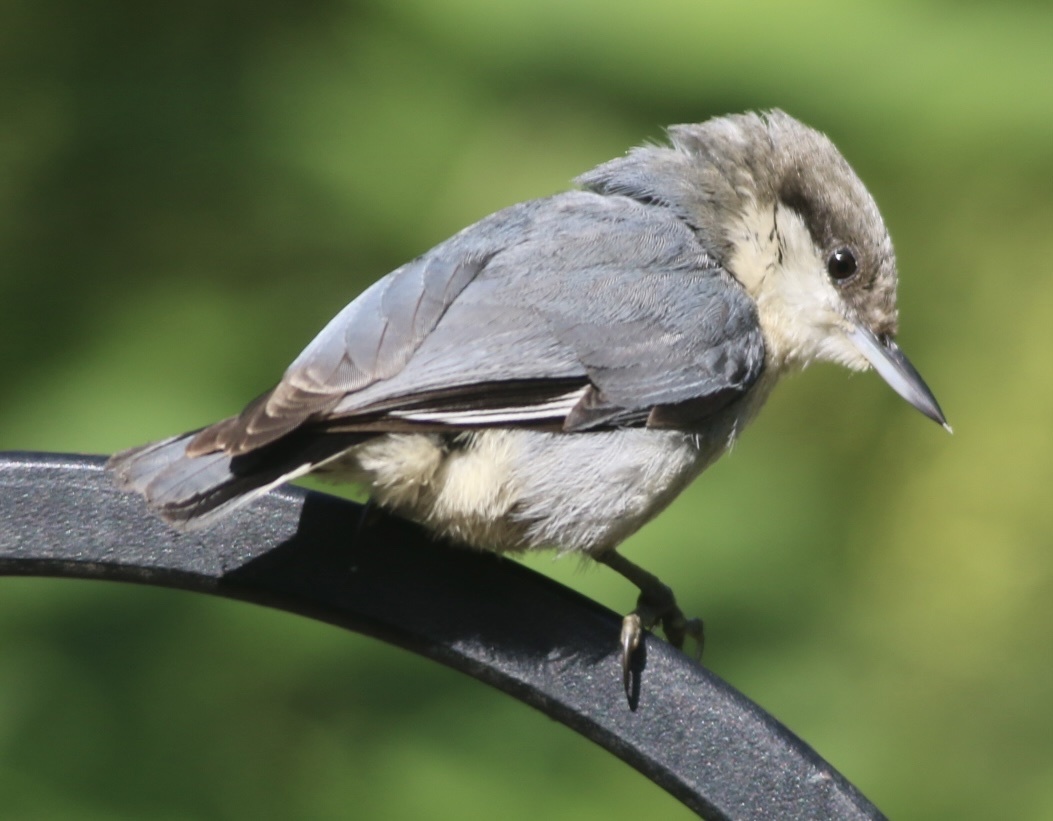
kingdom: Animalia
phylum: Chordata
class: Aves
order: Passeriformes
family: Sittidae
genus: Sitta
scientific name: Sitta pygmaea
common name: Pygmy nuthatch
